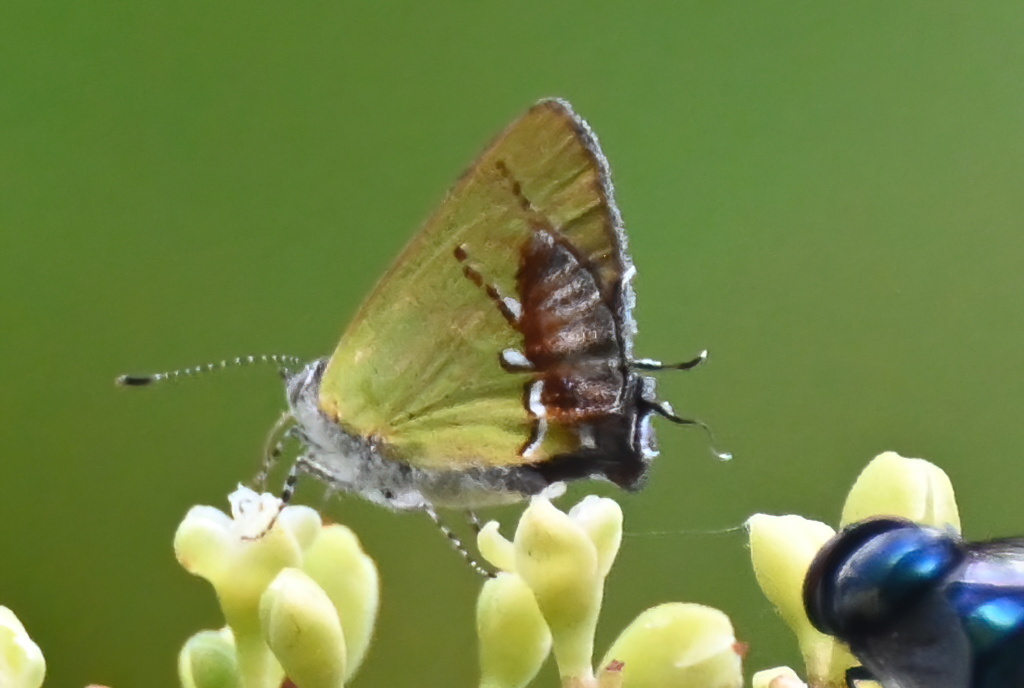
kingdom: Animalia
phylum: Arthropoda
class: Insecta
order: Lepidoptera
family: Lycaenidae
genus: Thecla
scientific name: Thecla maesites
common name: Verde azul hairstreak
